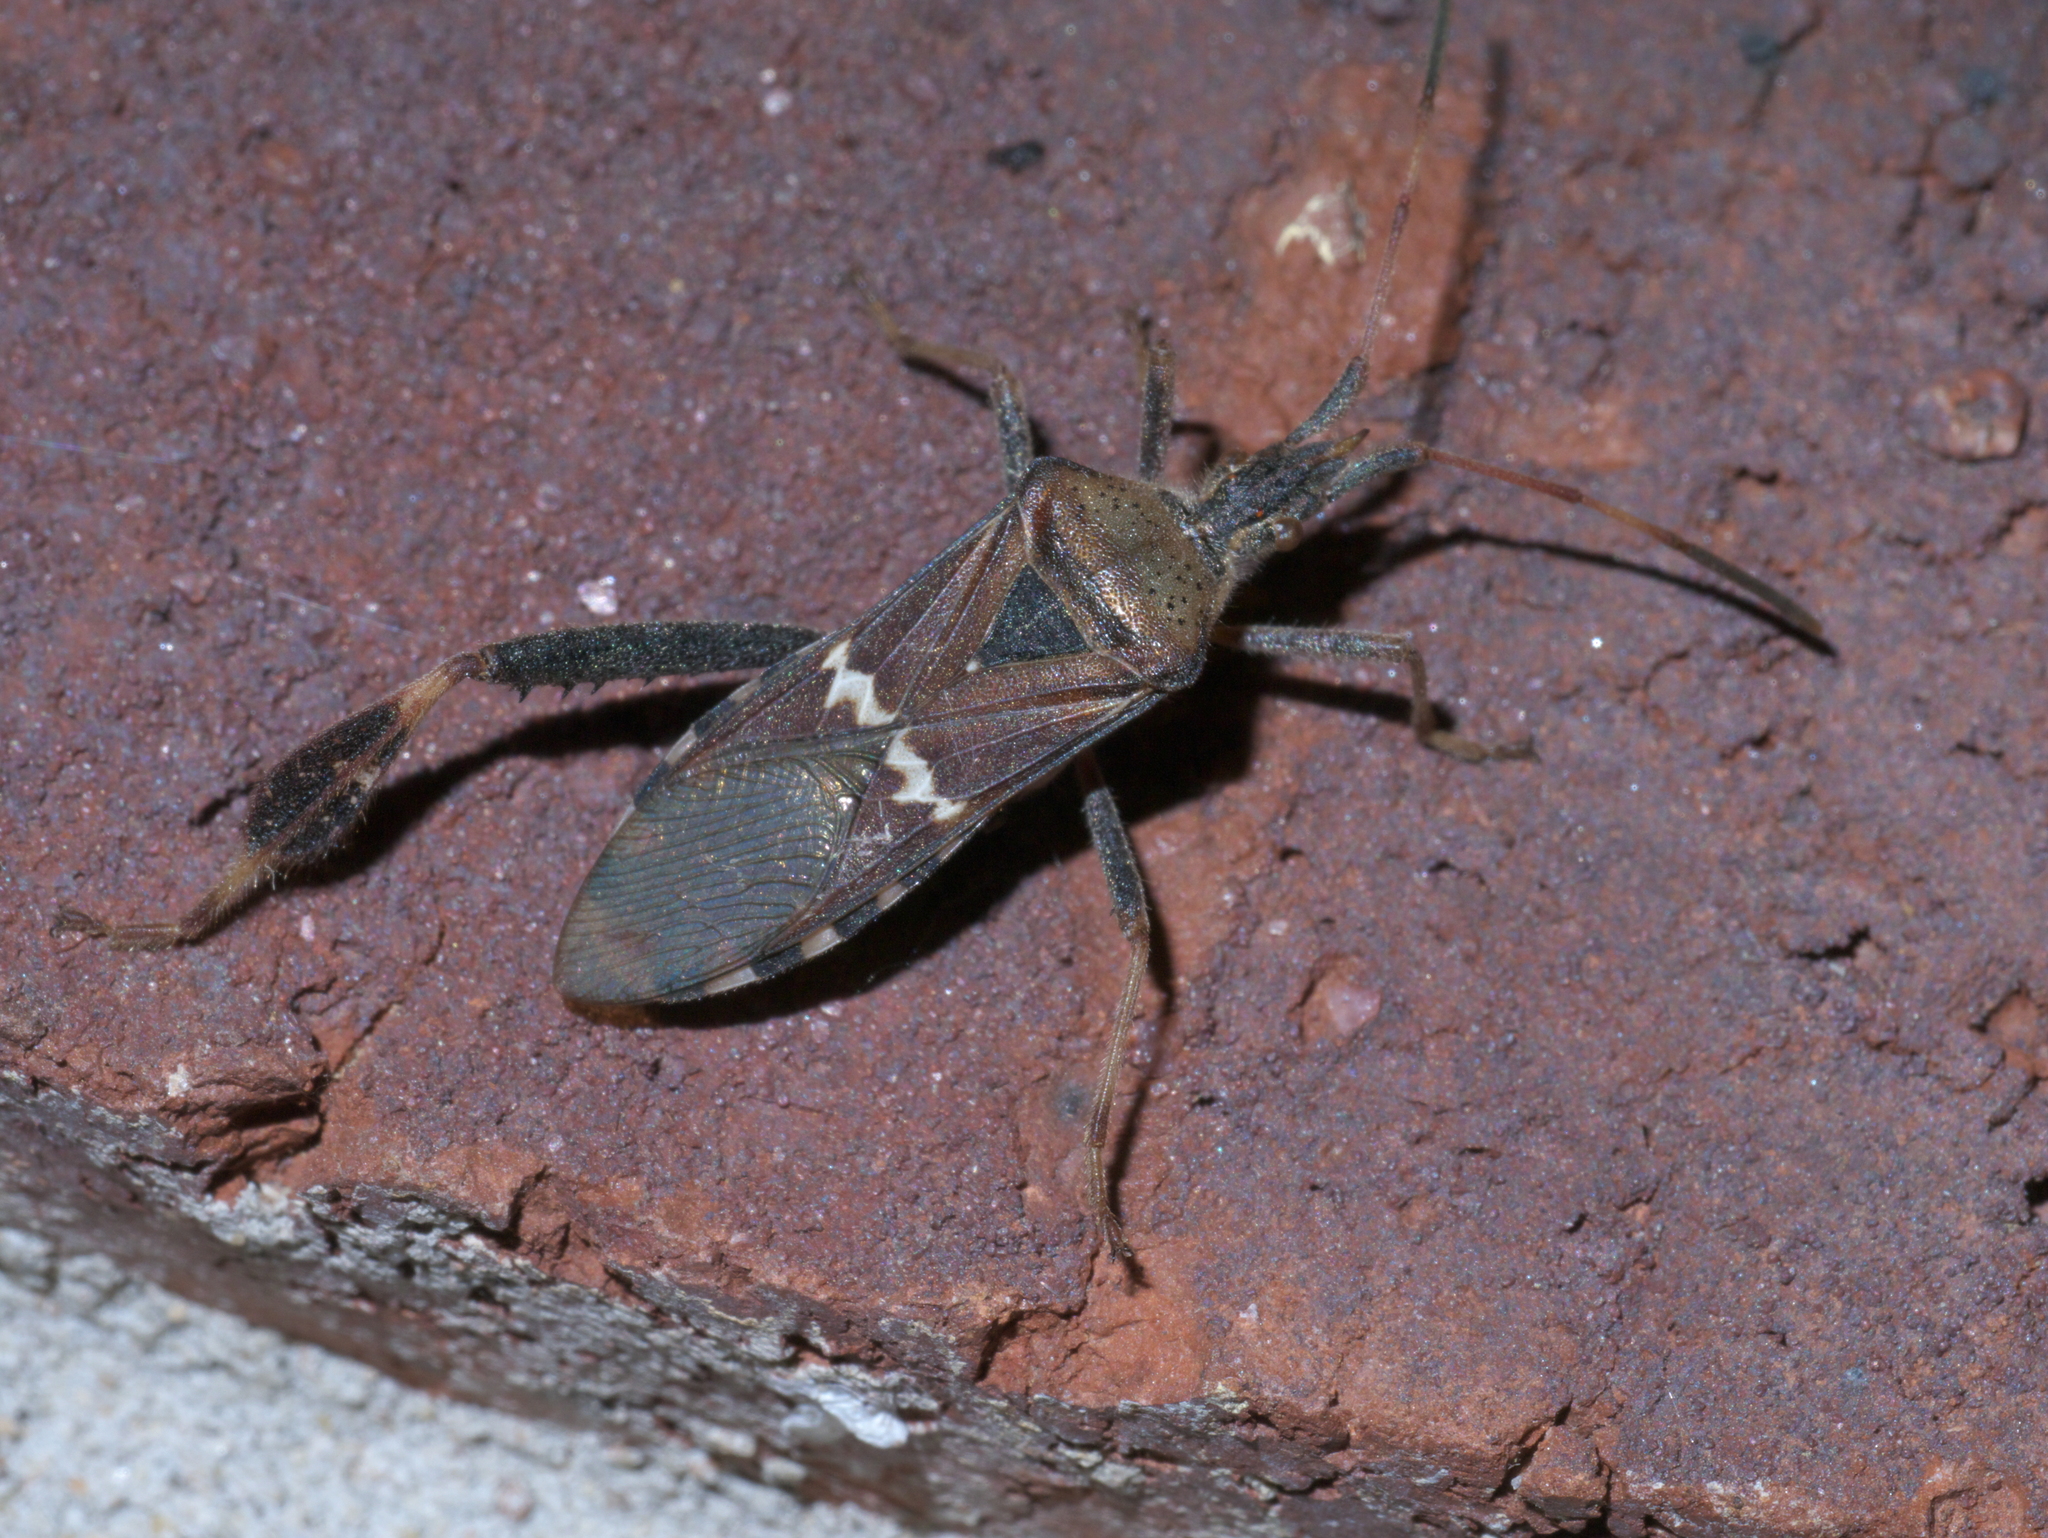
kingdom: Animalia
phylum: Arthropoda
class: Insecta
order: Hemiptera
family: Coreidae
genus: Leptoglossus
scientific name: Leptoglossus clypealis
